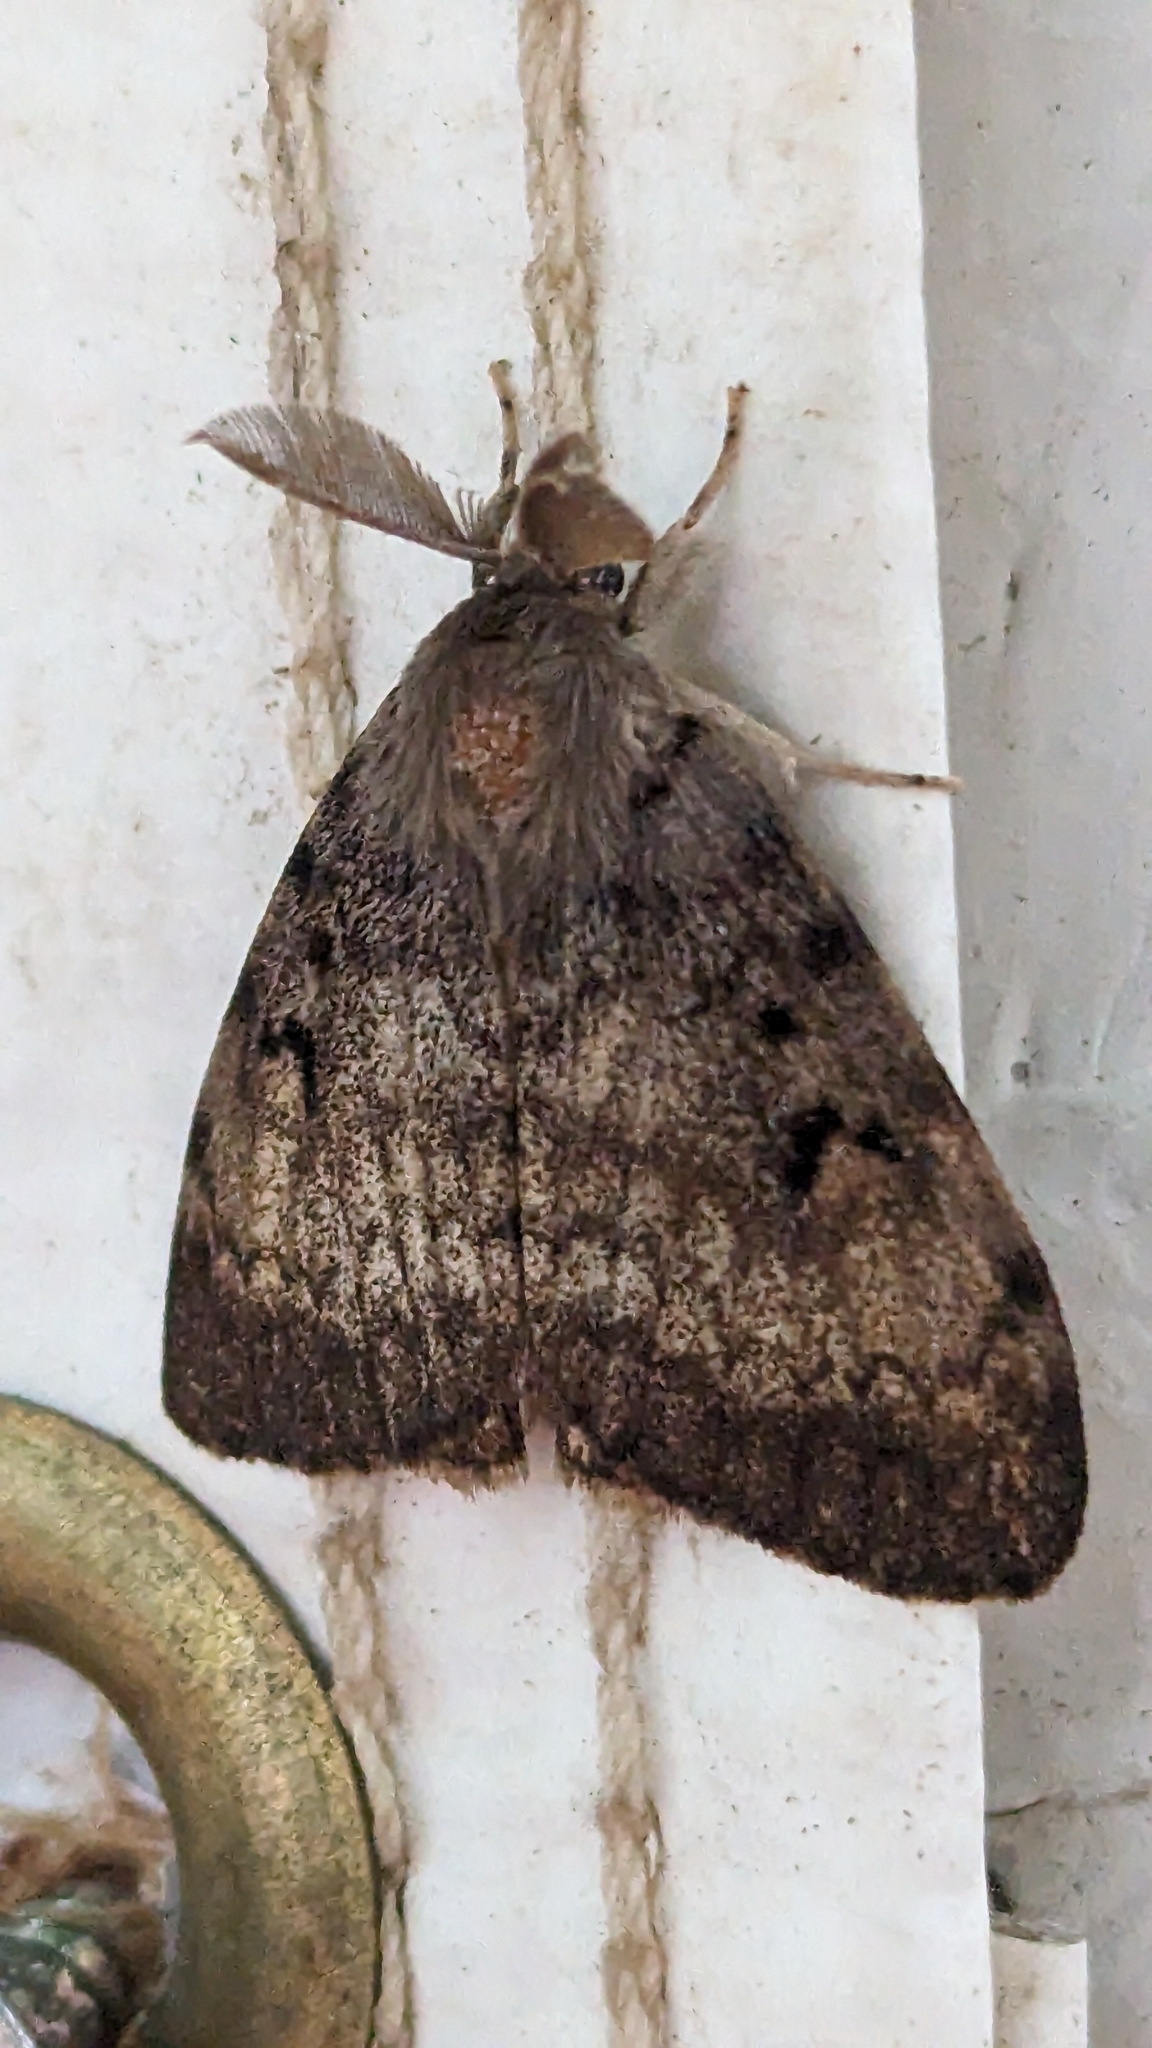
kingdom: Animalia
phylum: Arthropoda
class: Insecta
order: Lepidoptera
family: Erebidae
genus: Lymantria
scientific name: Lymantria dispar
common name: Gypsy moth
